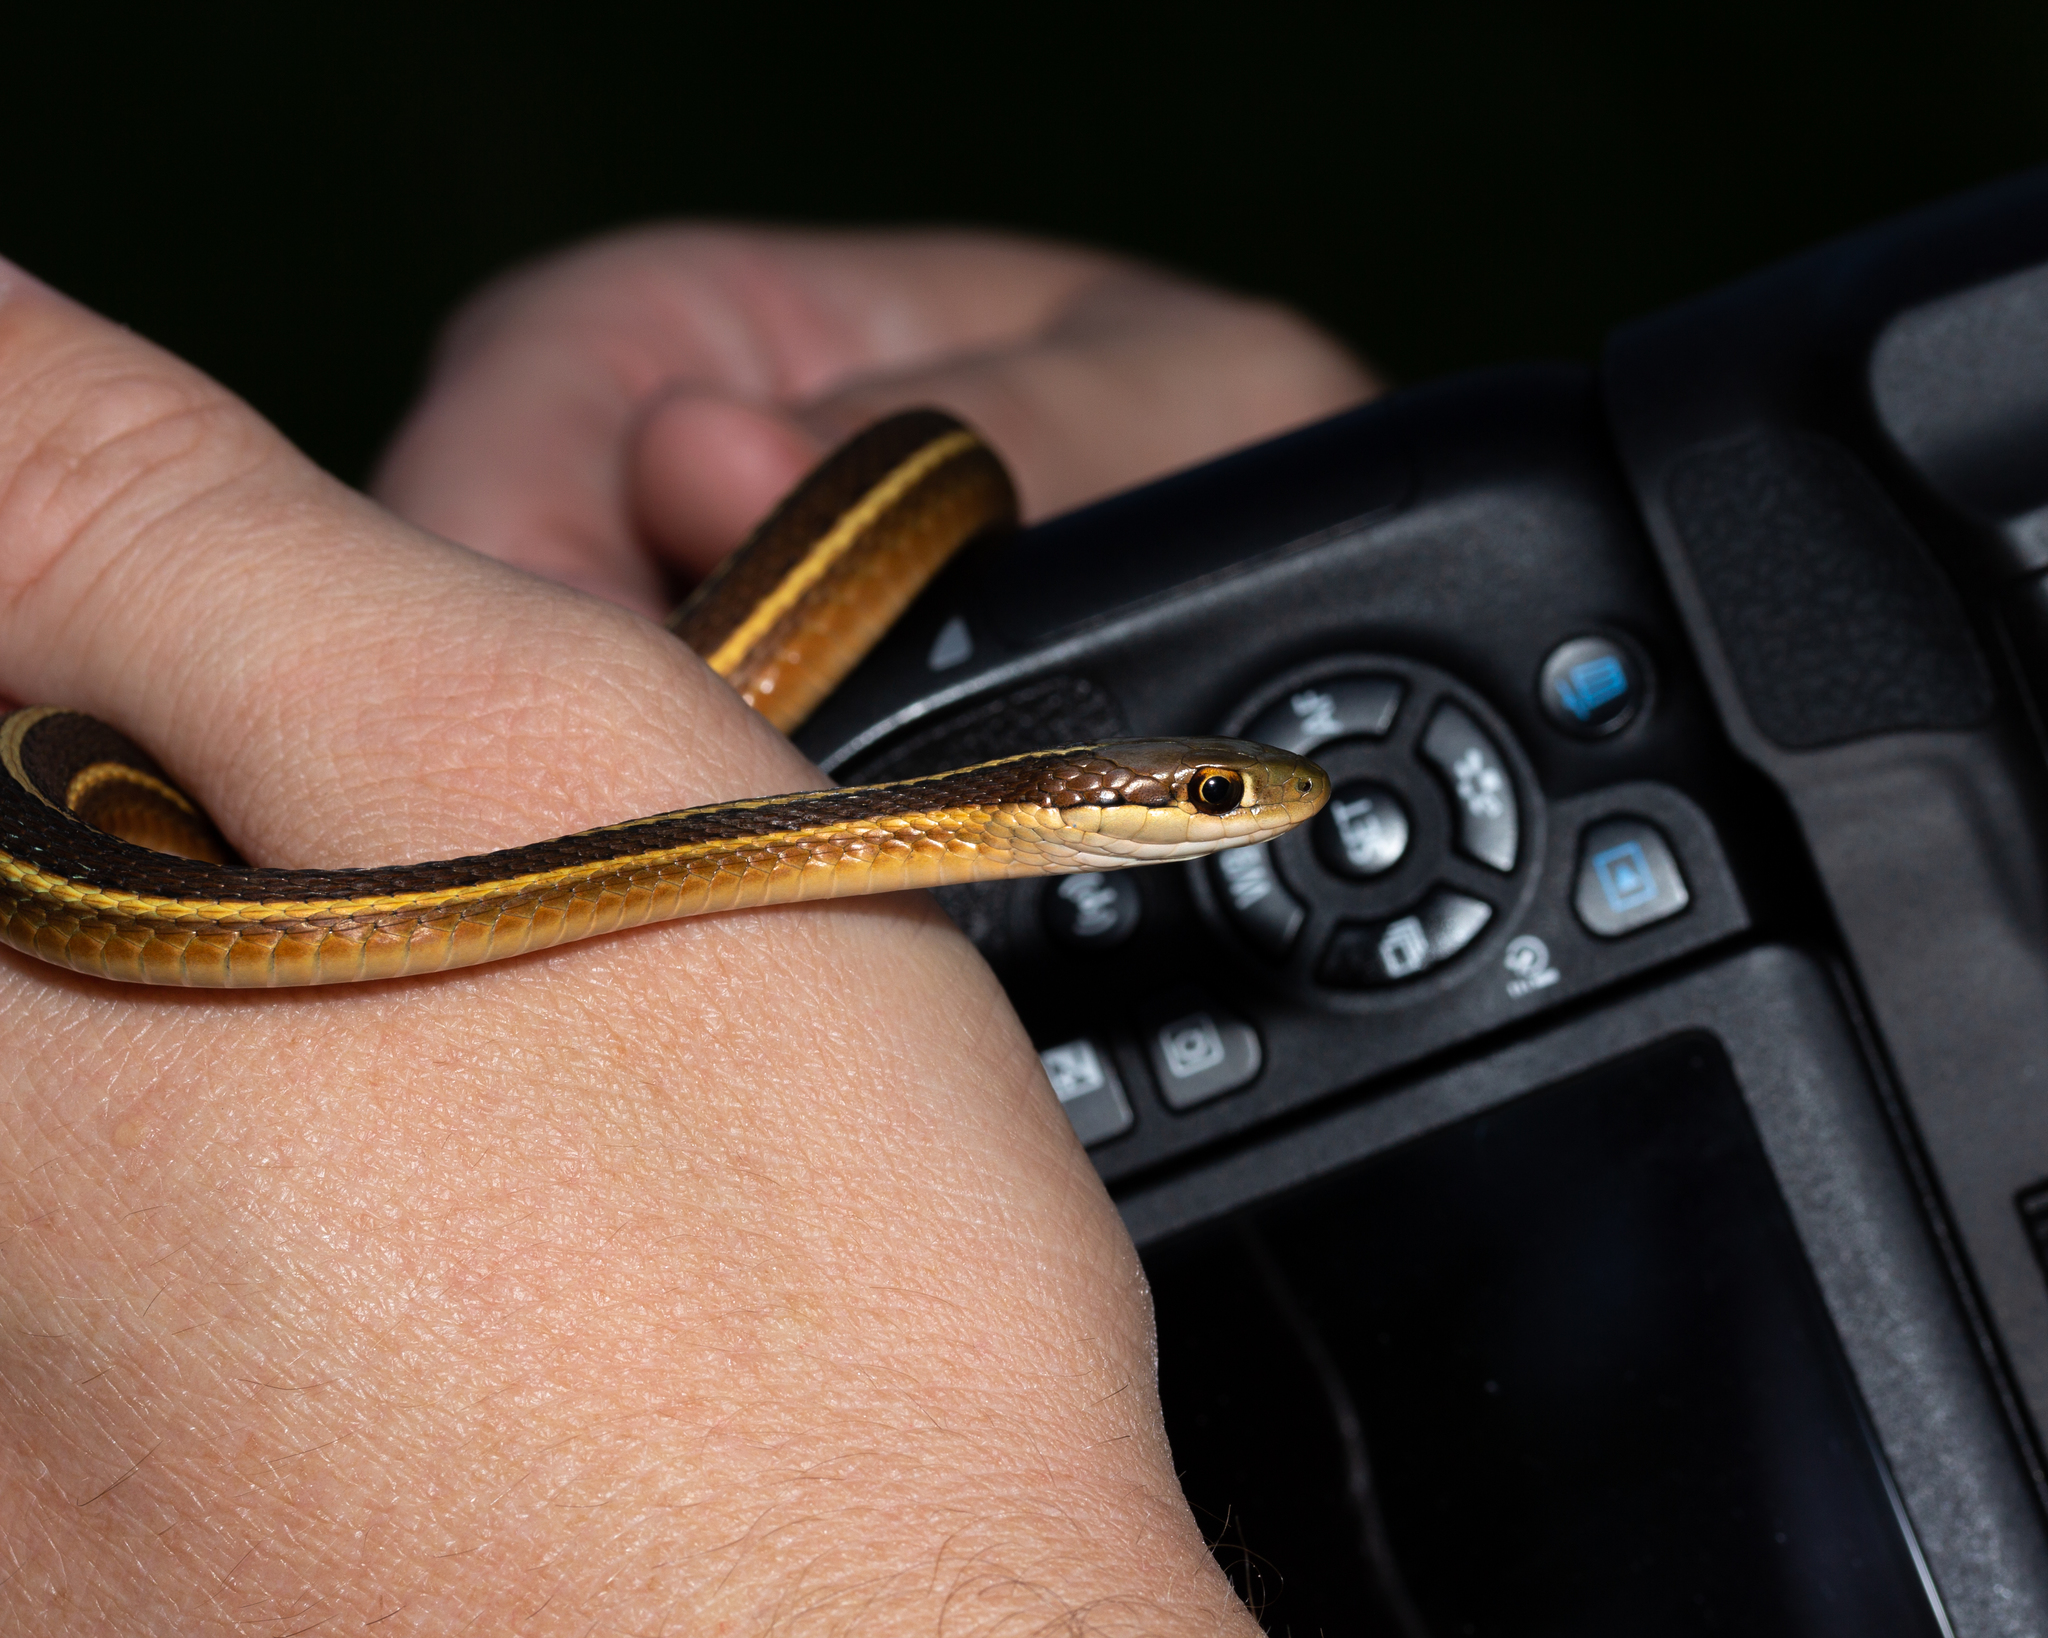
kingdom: Animalia
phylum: Chordata
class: Squamata
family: Colubridae
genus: Thamnophis
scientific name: Thamnophis saurita
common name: Eastern ribbonsnake
